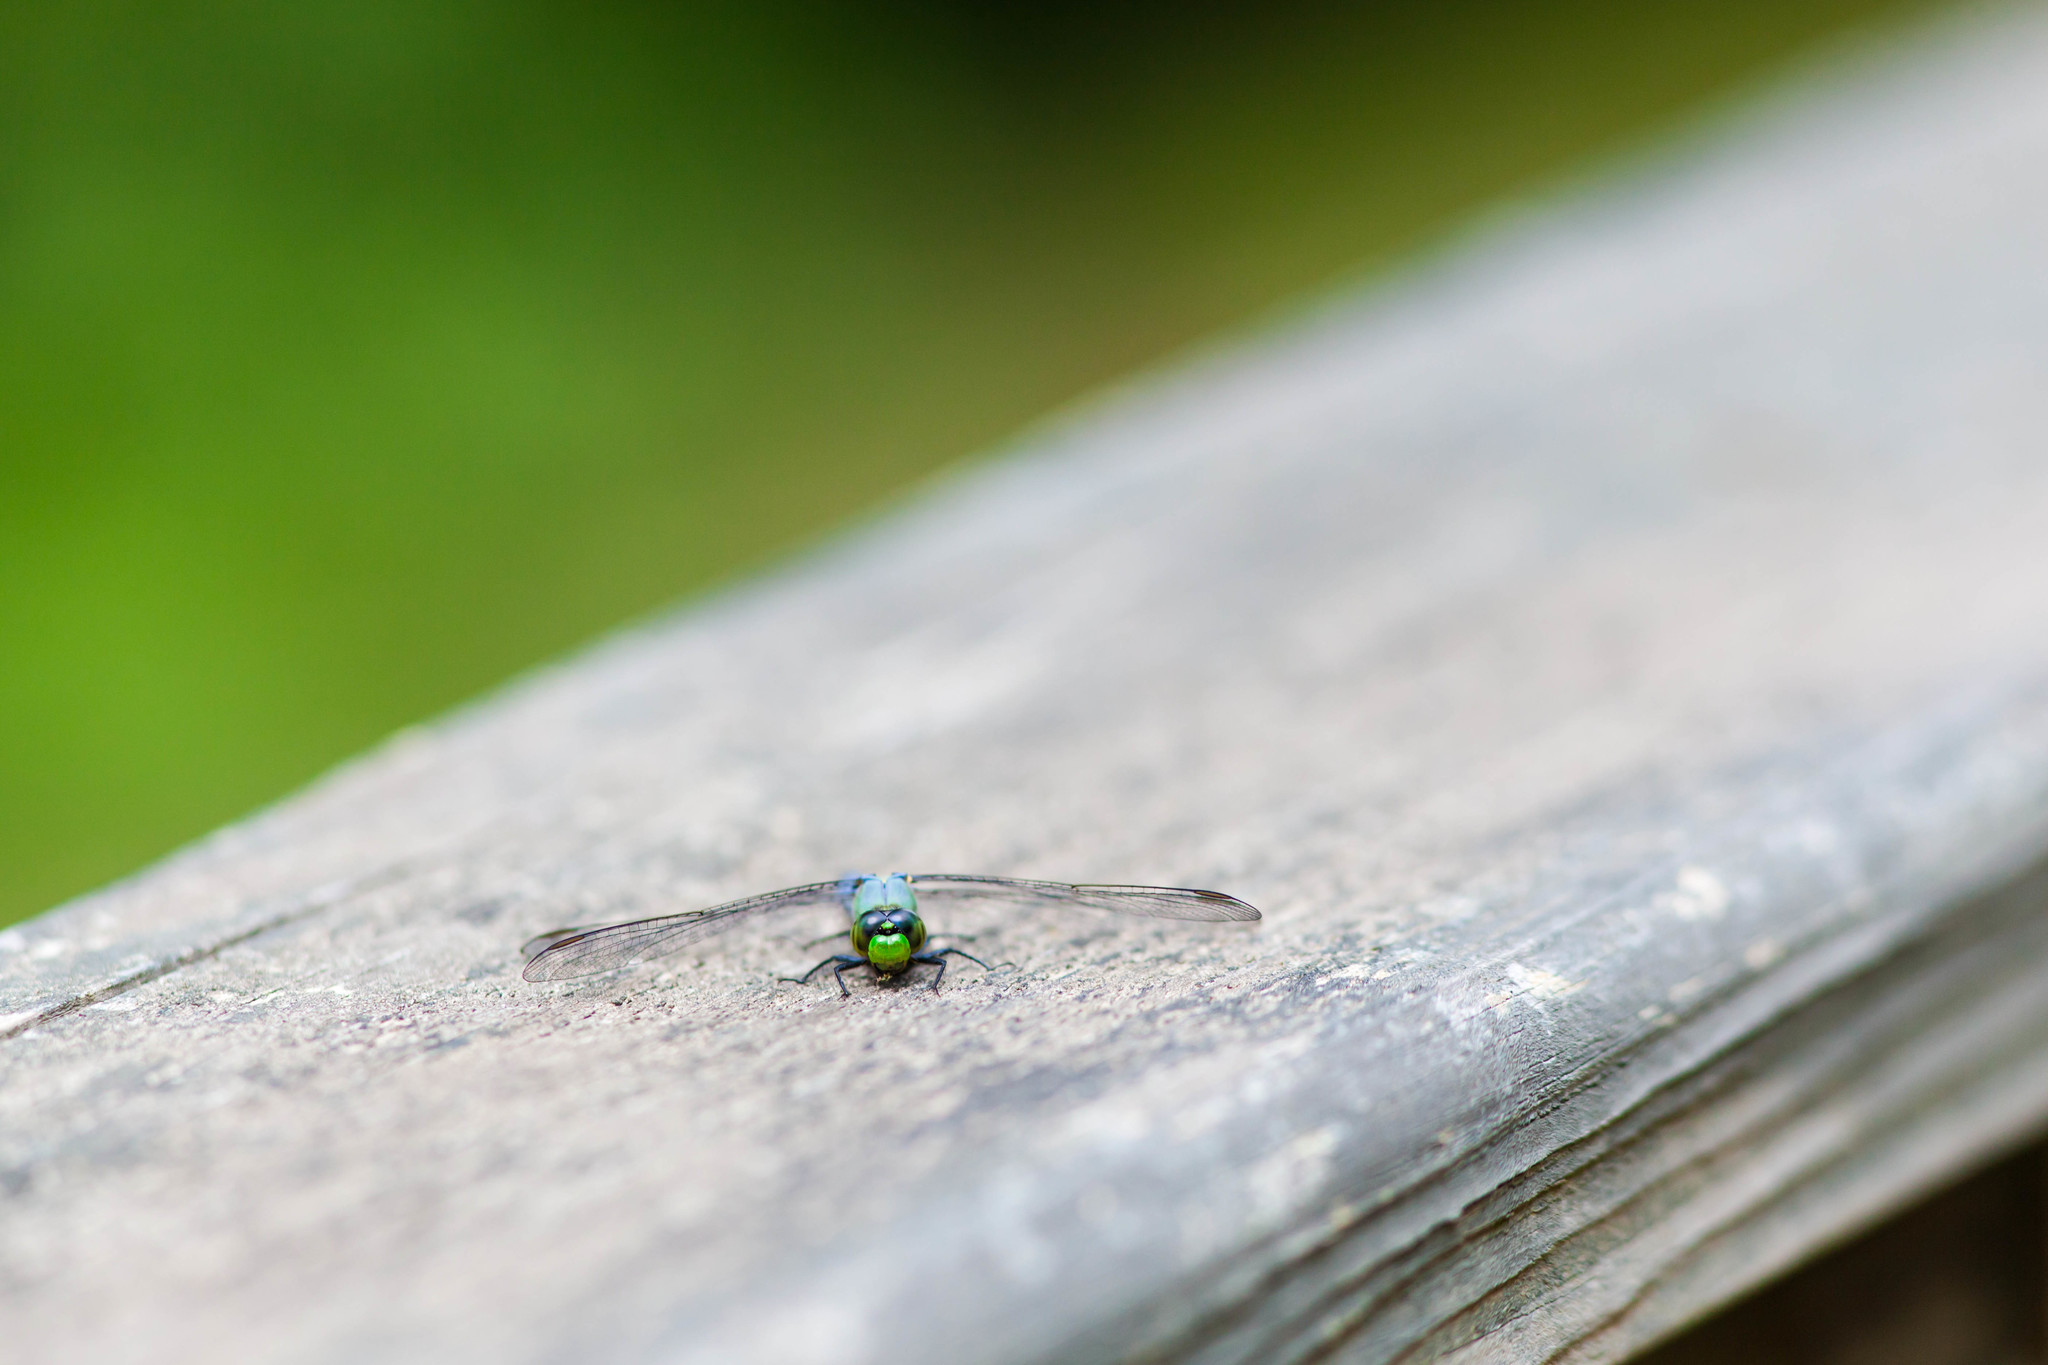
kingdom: Animalia
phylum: Arthropoda
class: Insecta
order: Odonata
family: Libellulidae
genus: Erythemis
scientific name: Erythemis simplicicollis
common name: Eastern pondhawk
